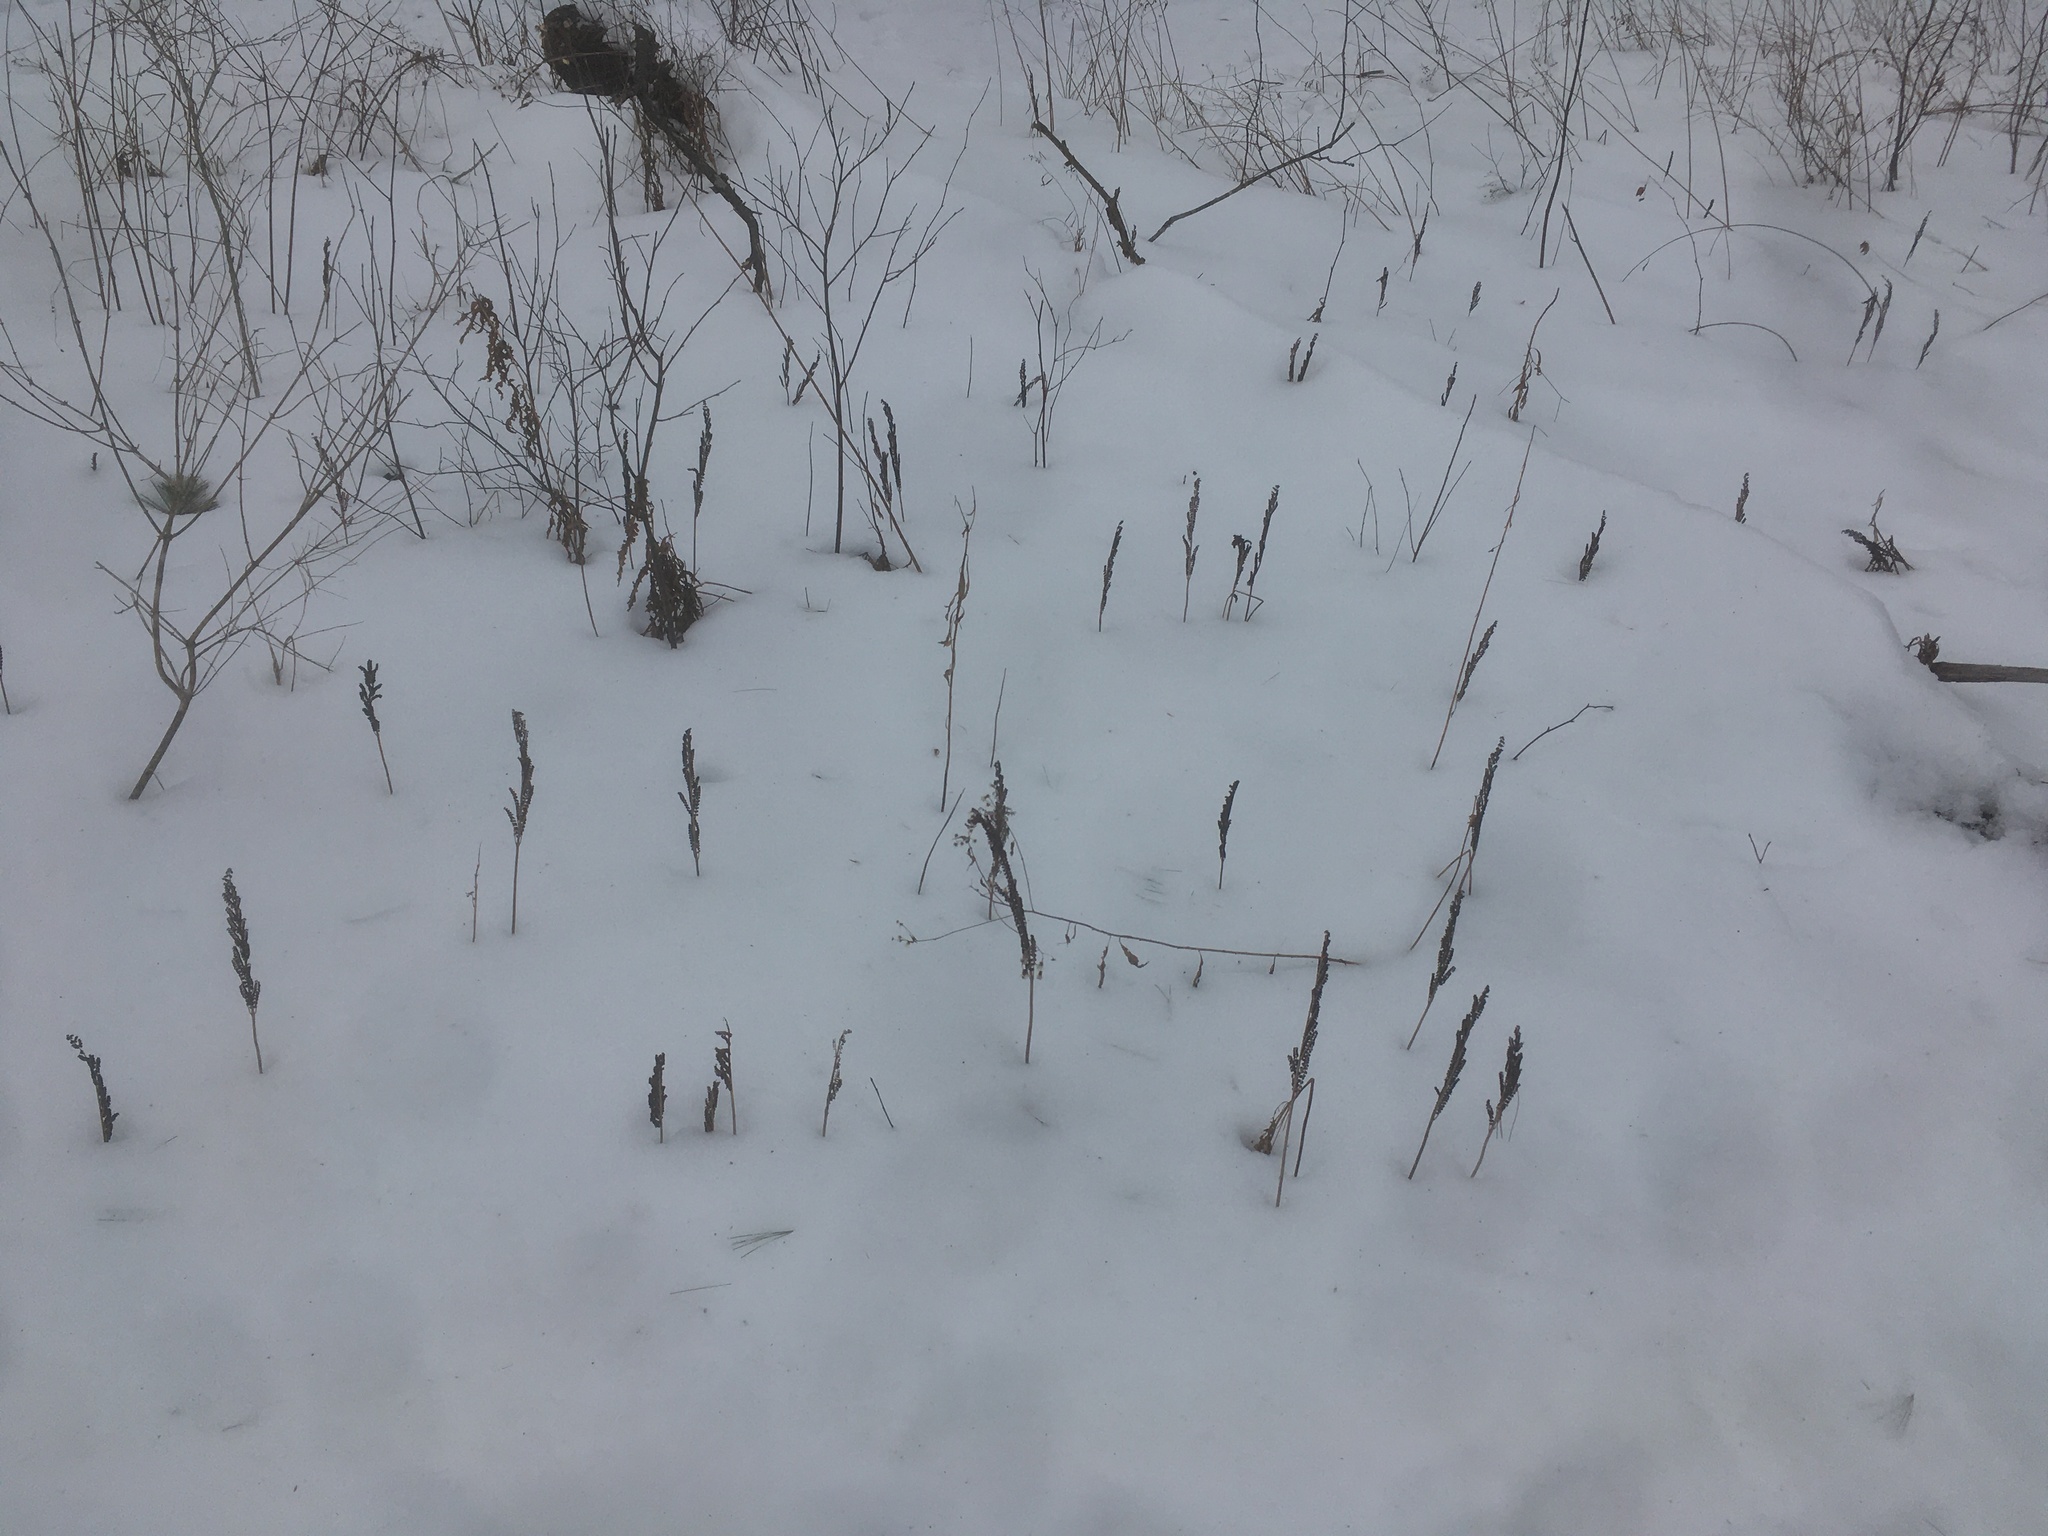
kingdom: Plantae
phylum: Tracheophyta
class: Polypodiopsida
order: Polypodiales
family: Onocleaceae
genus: Onoclea
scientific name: Onoclea sensibilis
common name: Sensitive fern
